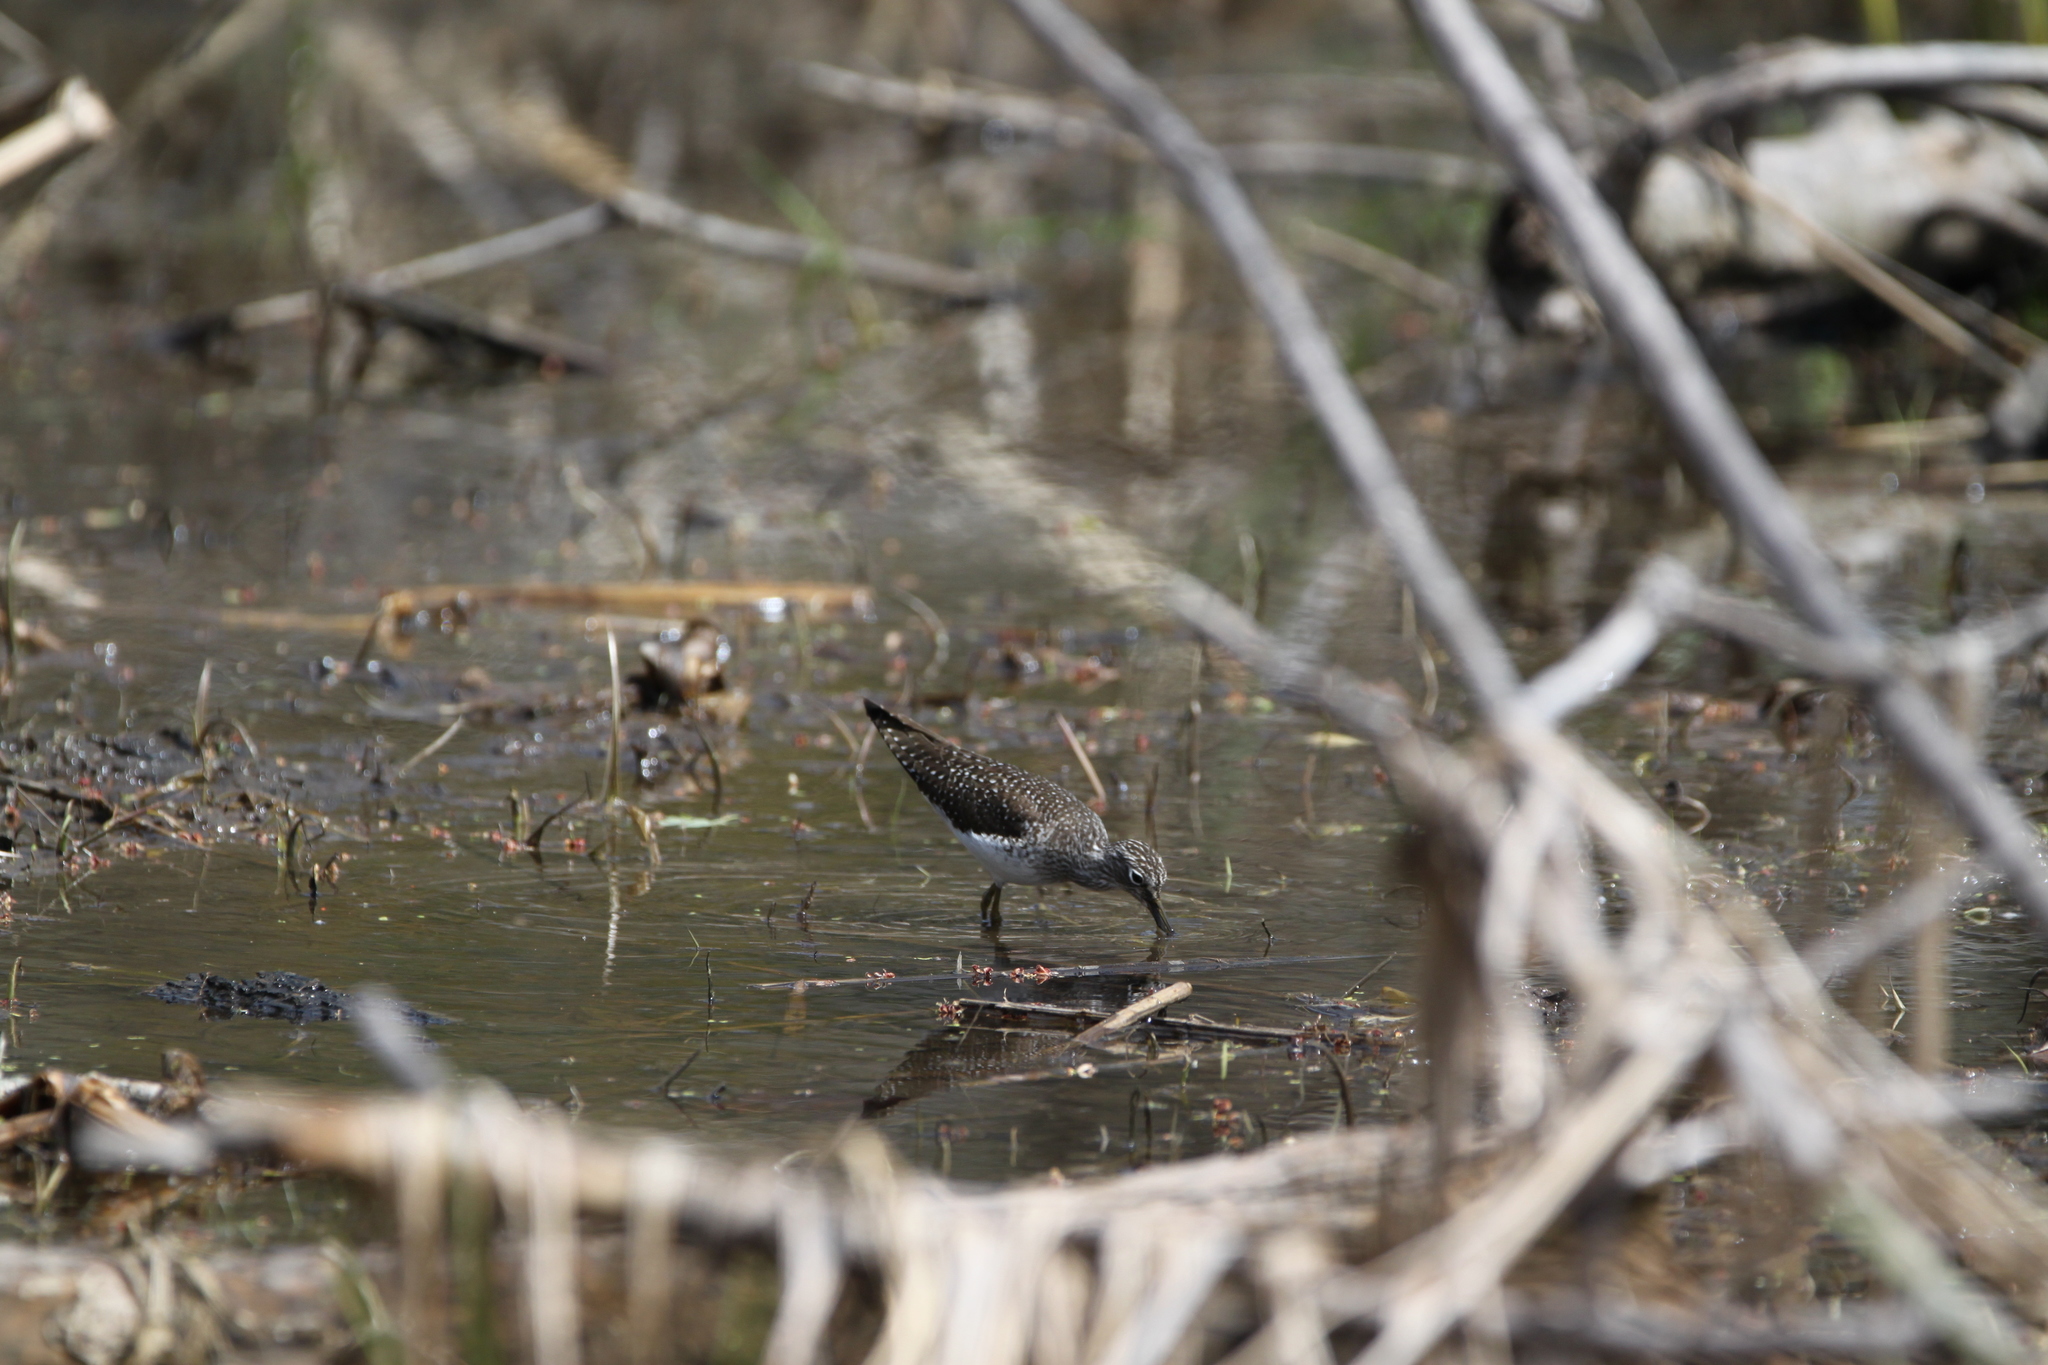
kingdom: Animalia
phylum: Chordata
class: Aves
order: Charadriiformes
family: Scolopacidae
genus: Tringa
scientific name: Tringa solitaria
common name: Solitary sandpiper
